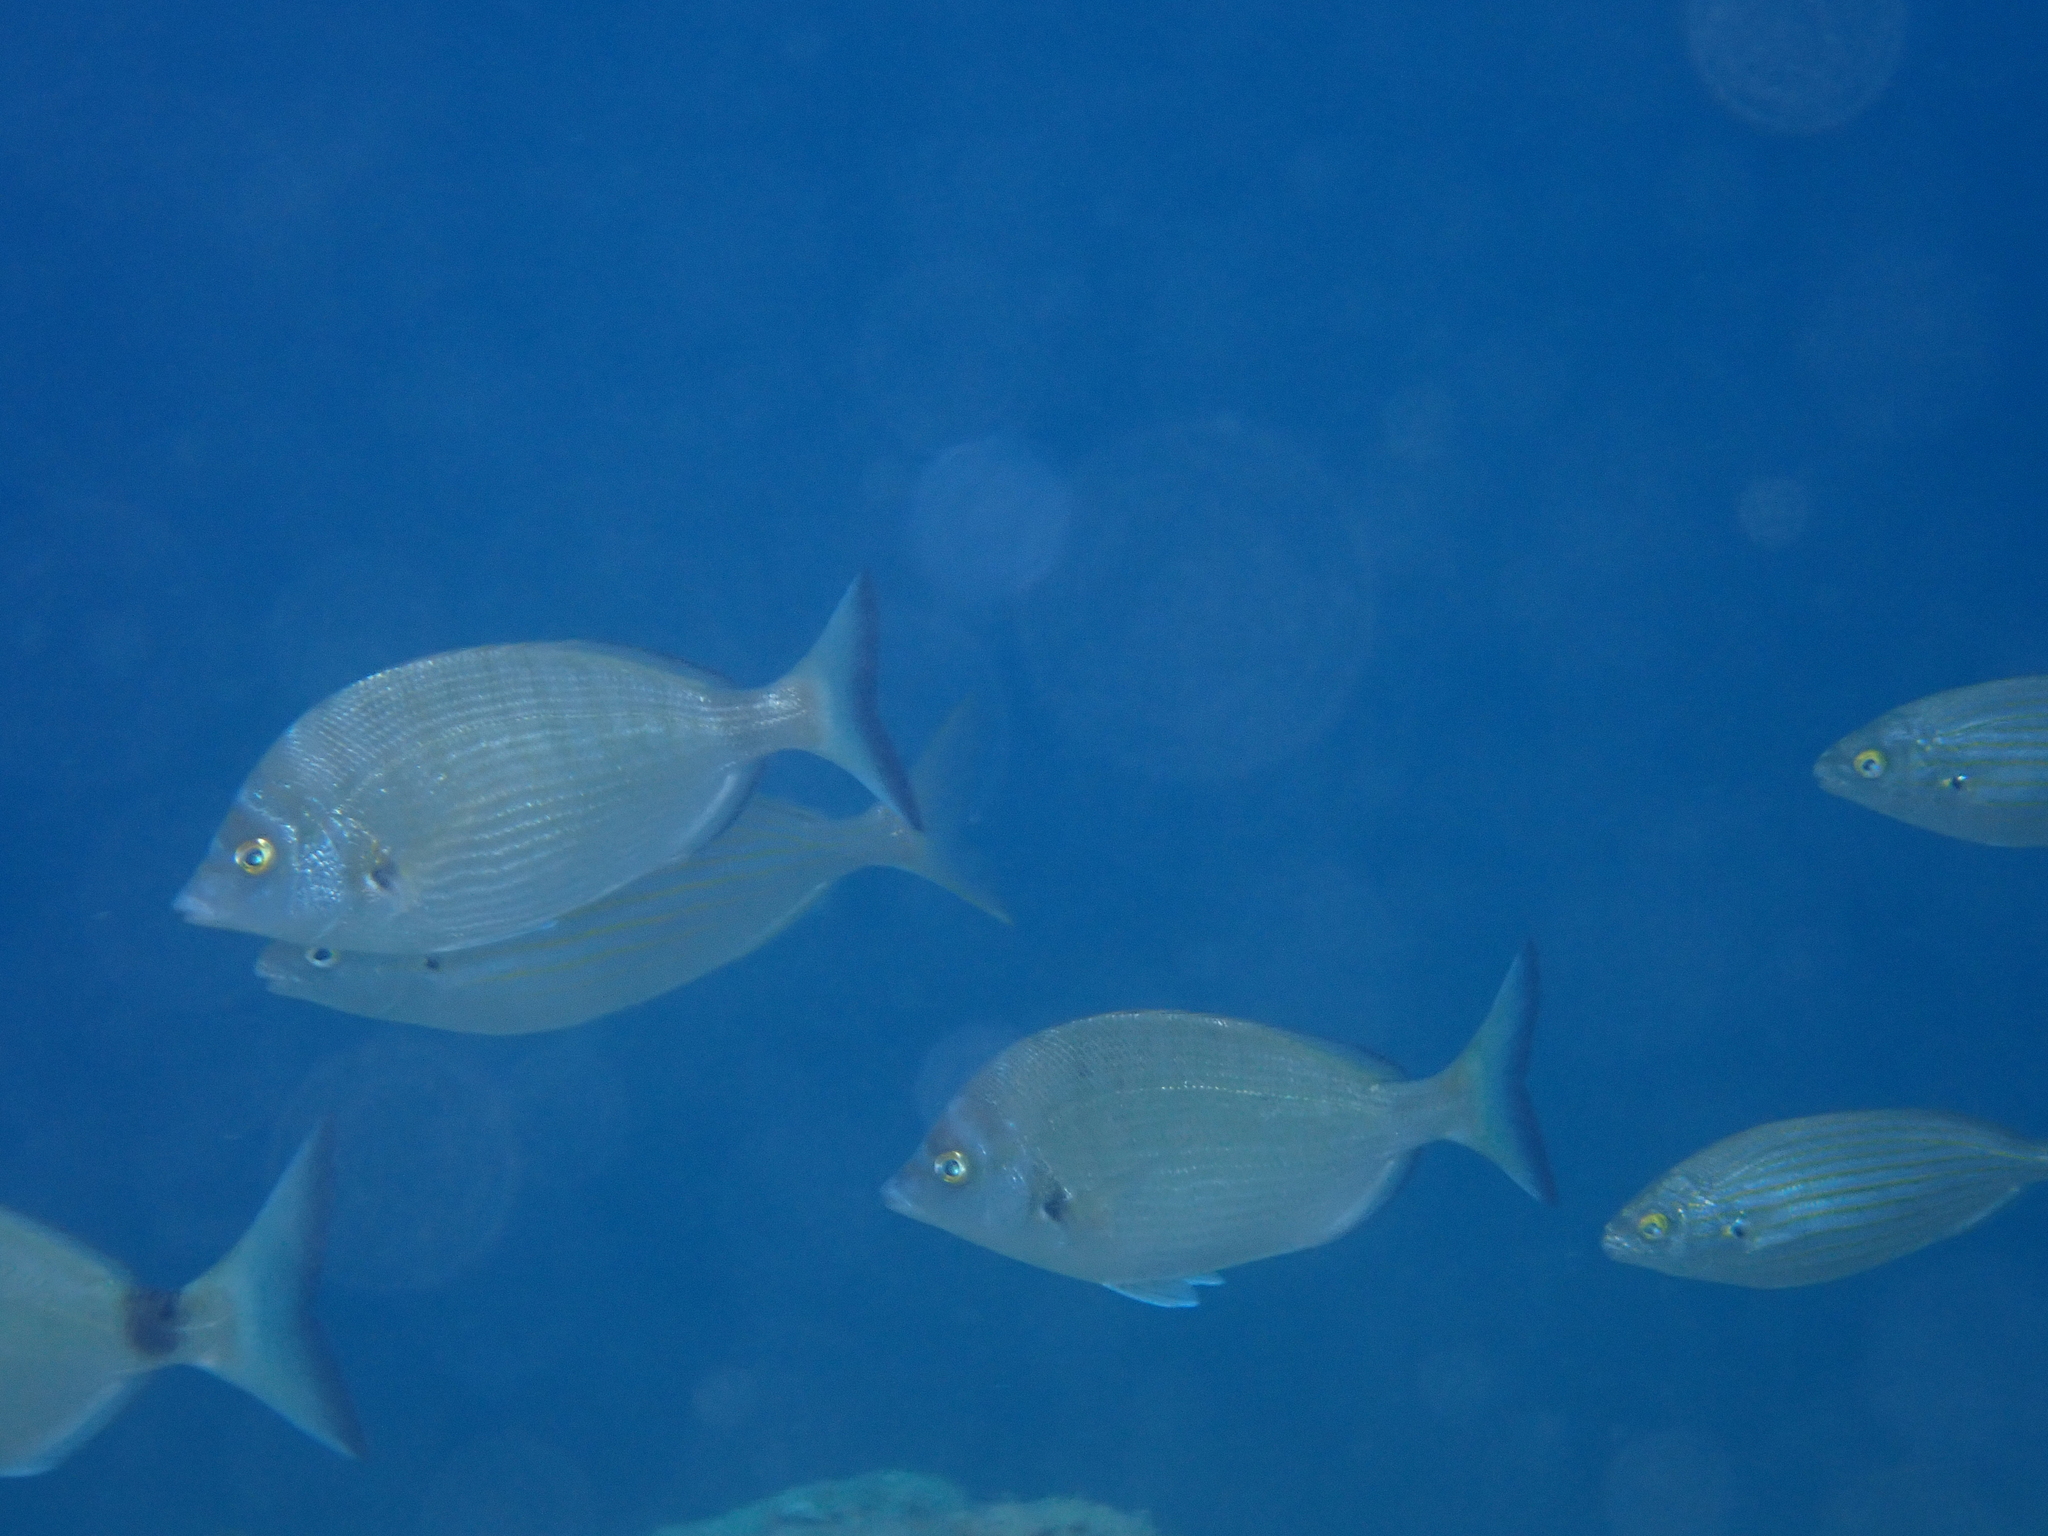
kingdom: Animalia
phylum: Chordata
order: Perciformes
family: Sparidae
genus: Diplodus
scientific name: Diplodus puntazzo
